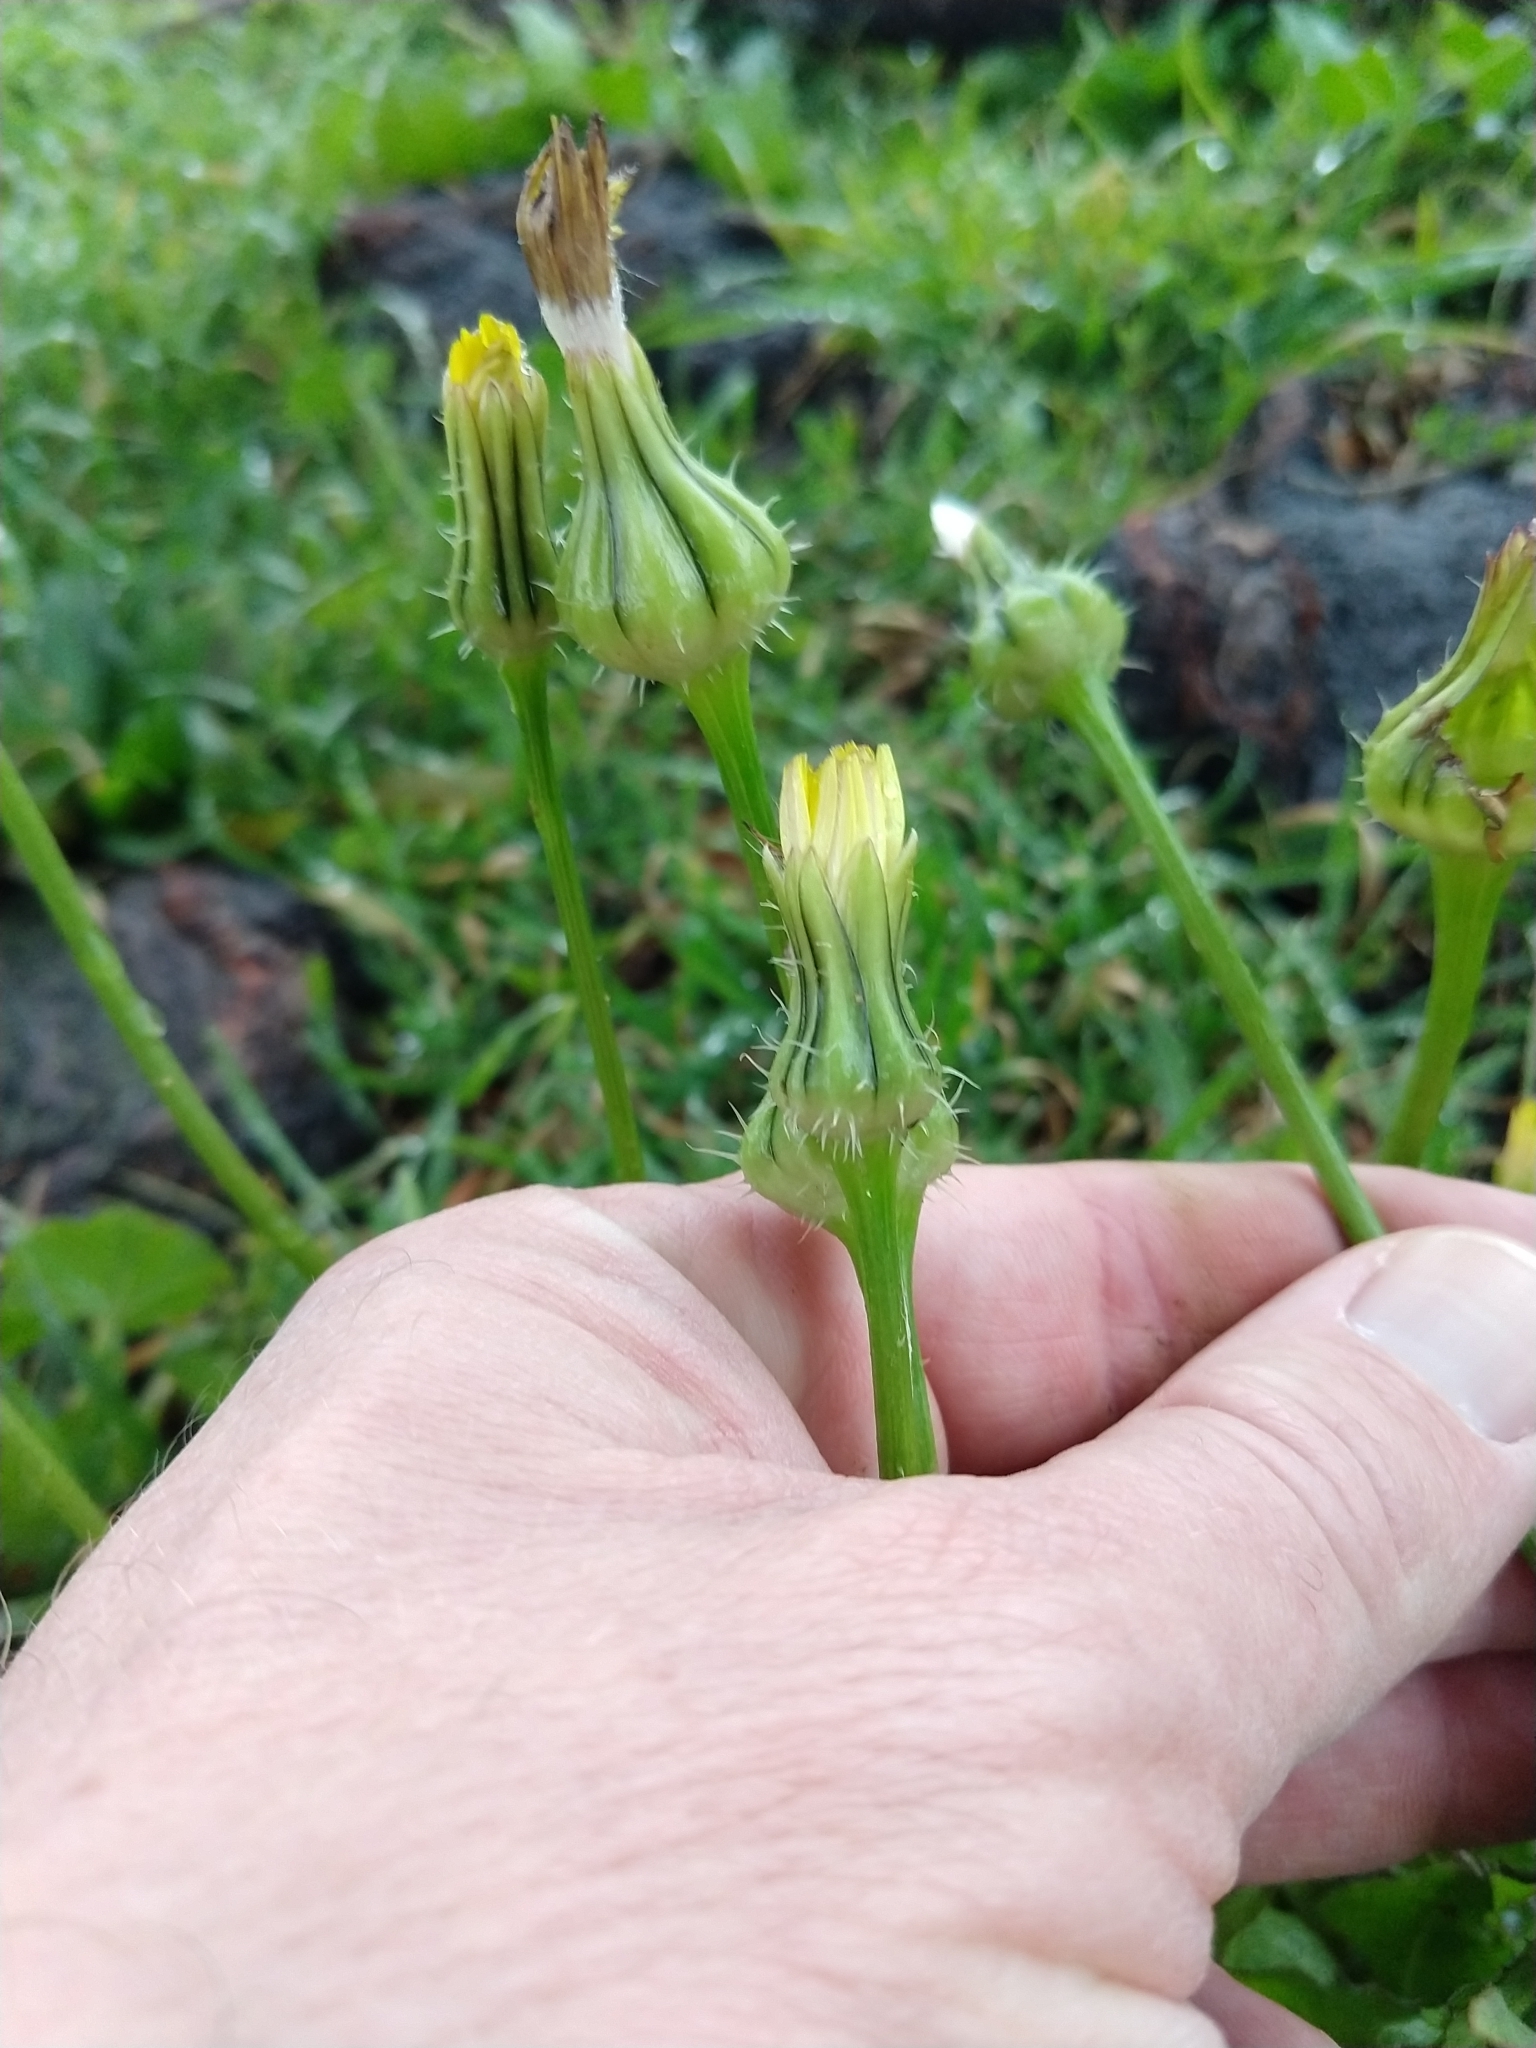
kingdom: Plantae
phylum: Tracheophyta
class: Magnoliopsida
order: Asterales
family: Asteraceae
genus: Urospermum
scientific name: Urospermum picroides
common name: False hawkbit
